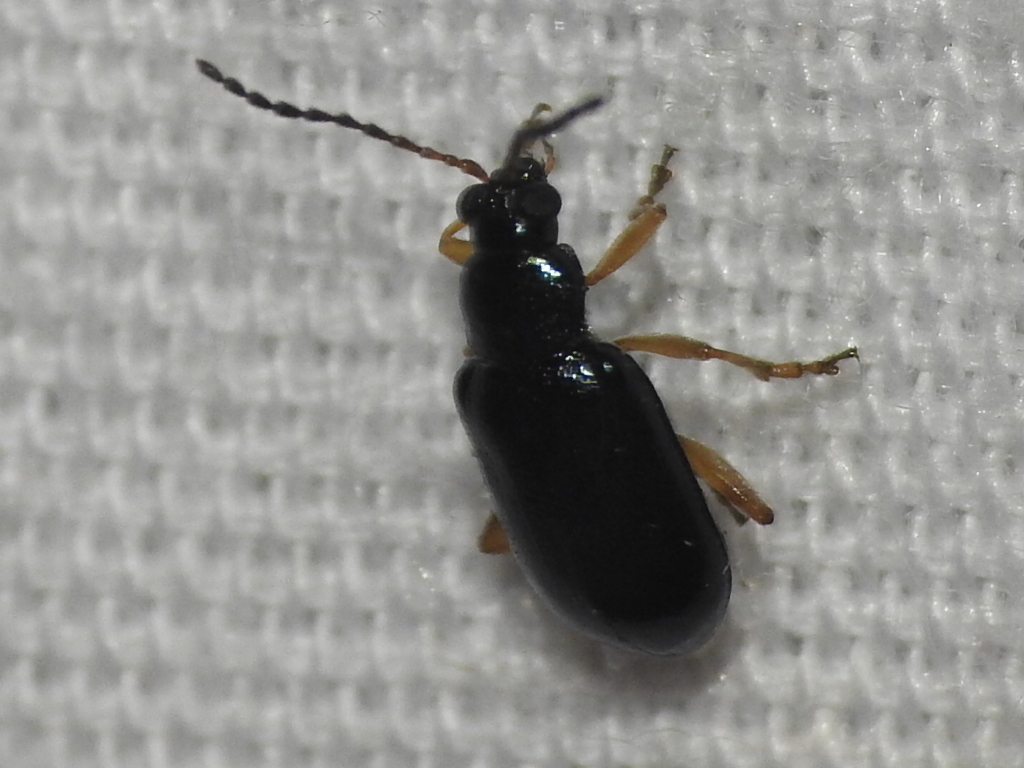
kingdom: Animalia
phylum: Arthropoda
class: Insecta
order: Coleoptera
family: Chrysomelidae
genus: Lysathia
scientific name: Lysathia ludoviciana
